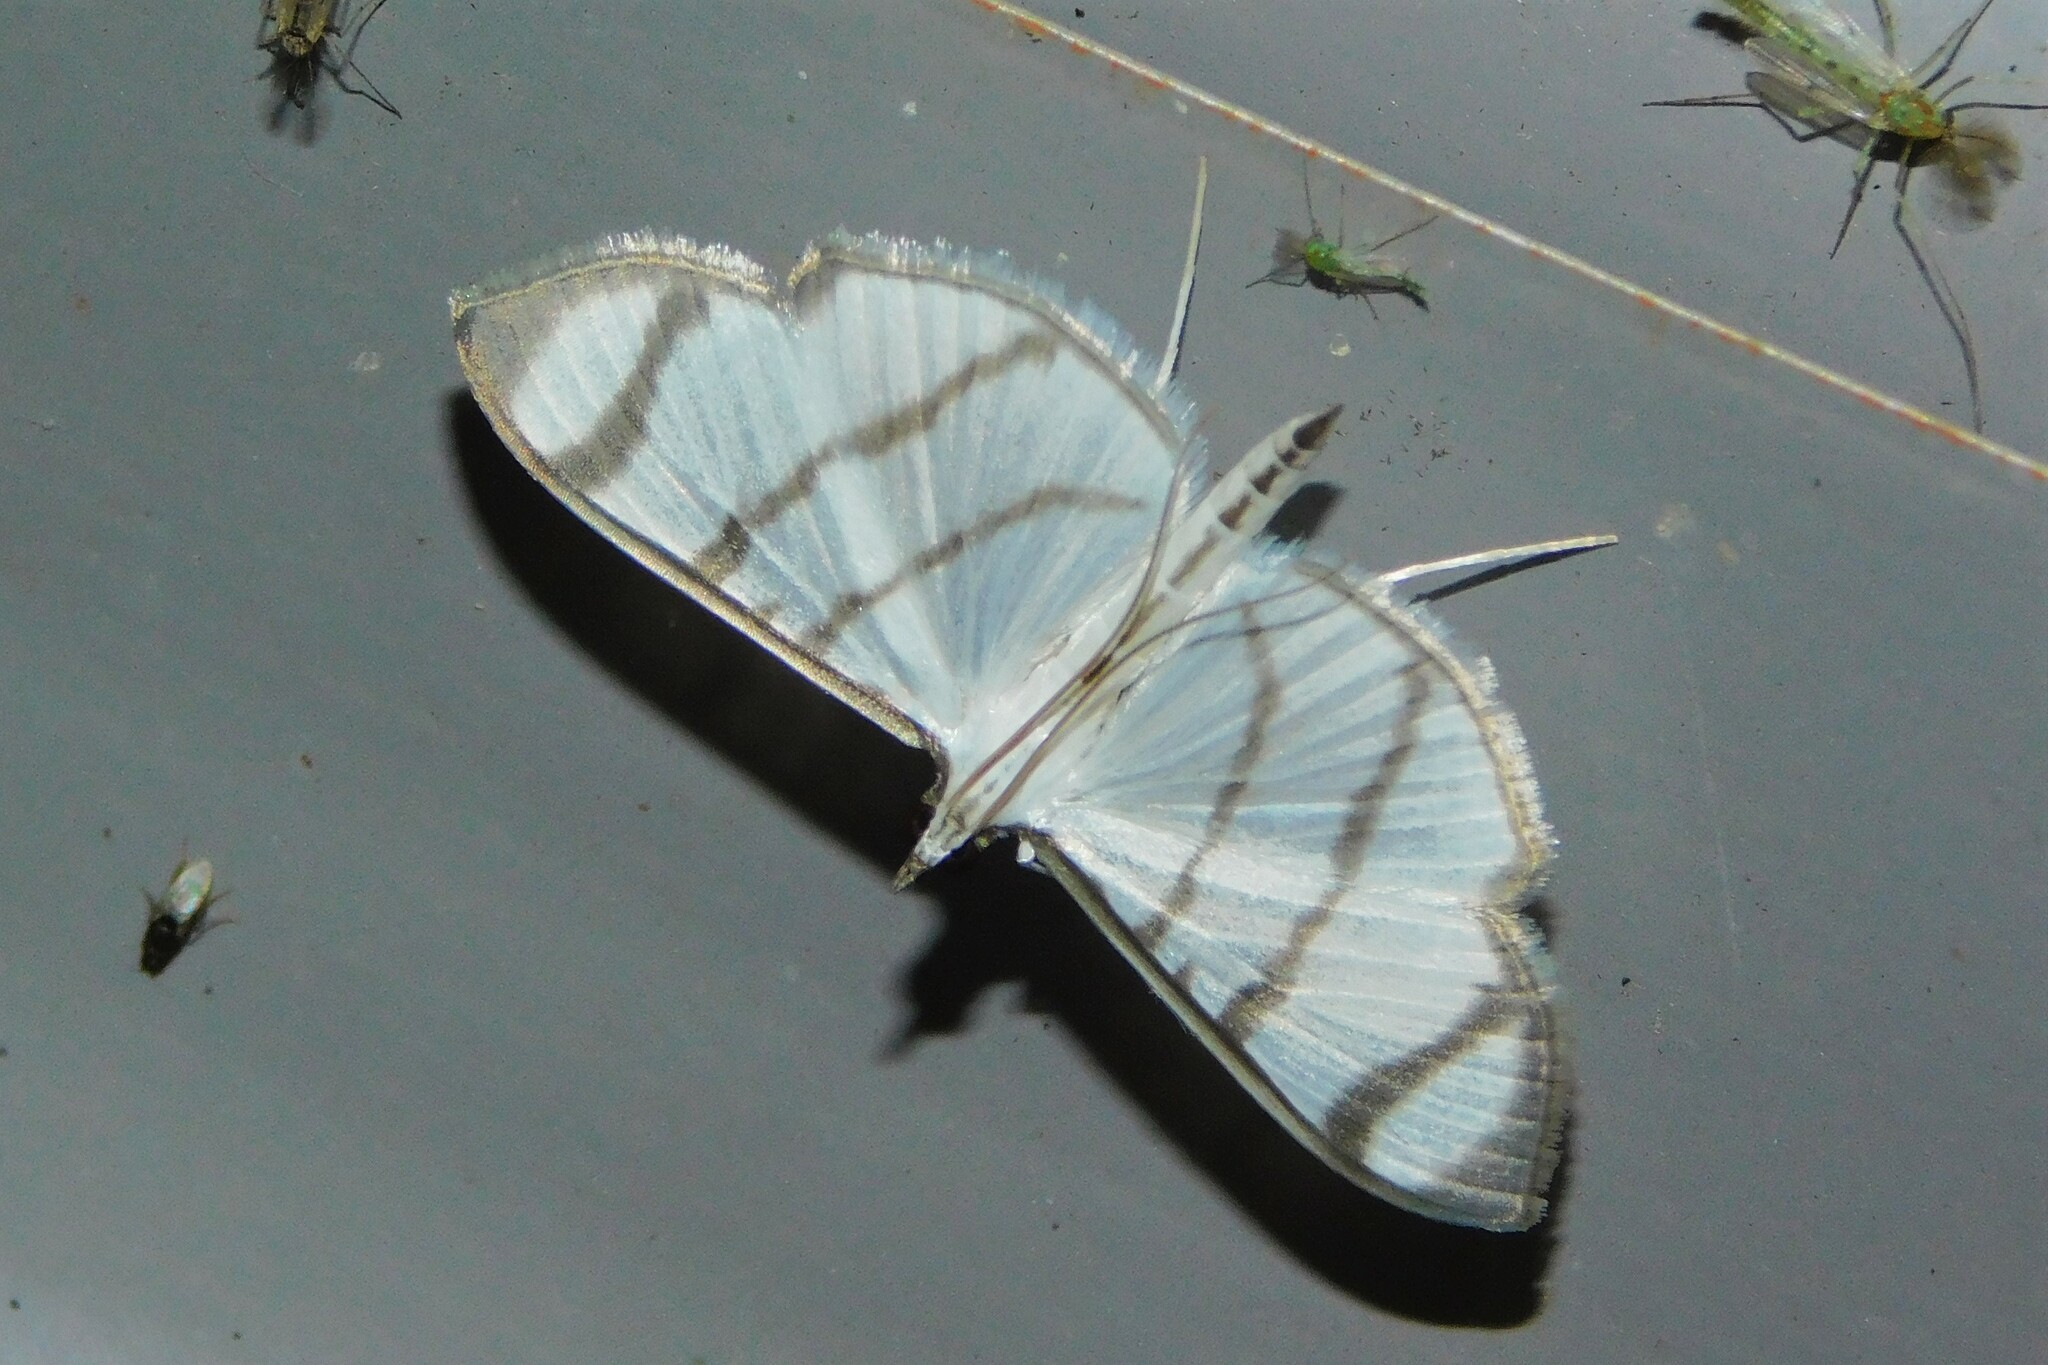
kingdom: Animalia
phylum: Arthropoda
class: Insecta
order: Lepidoptera
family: Crambidae
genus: Zebronia
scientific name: Zebronia phenice
